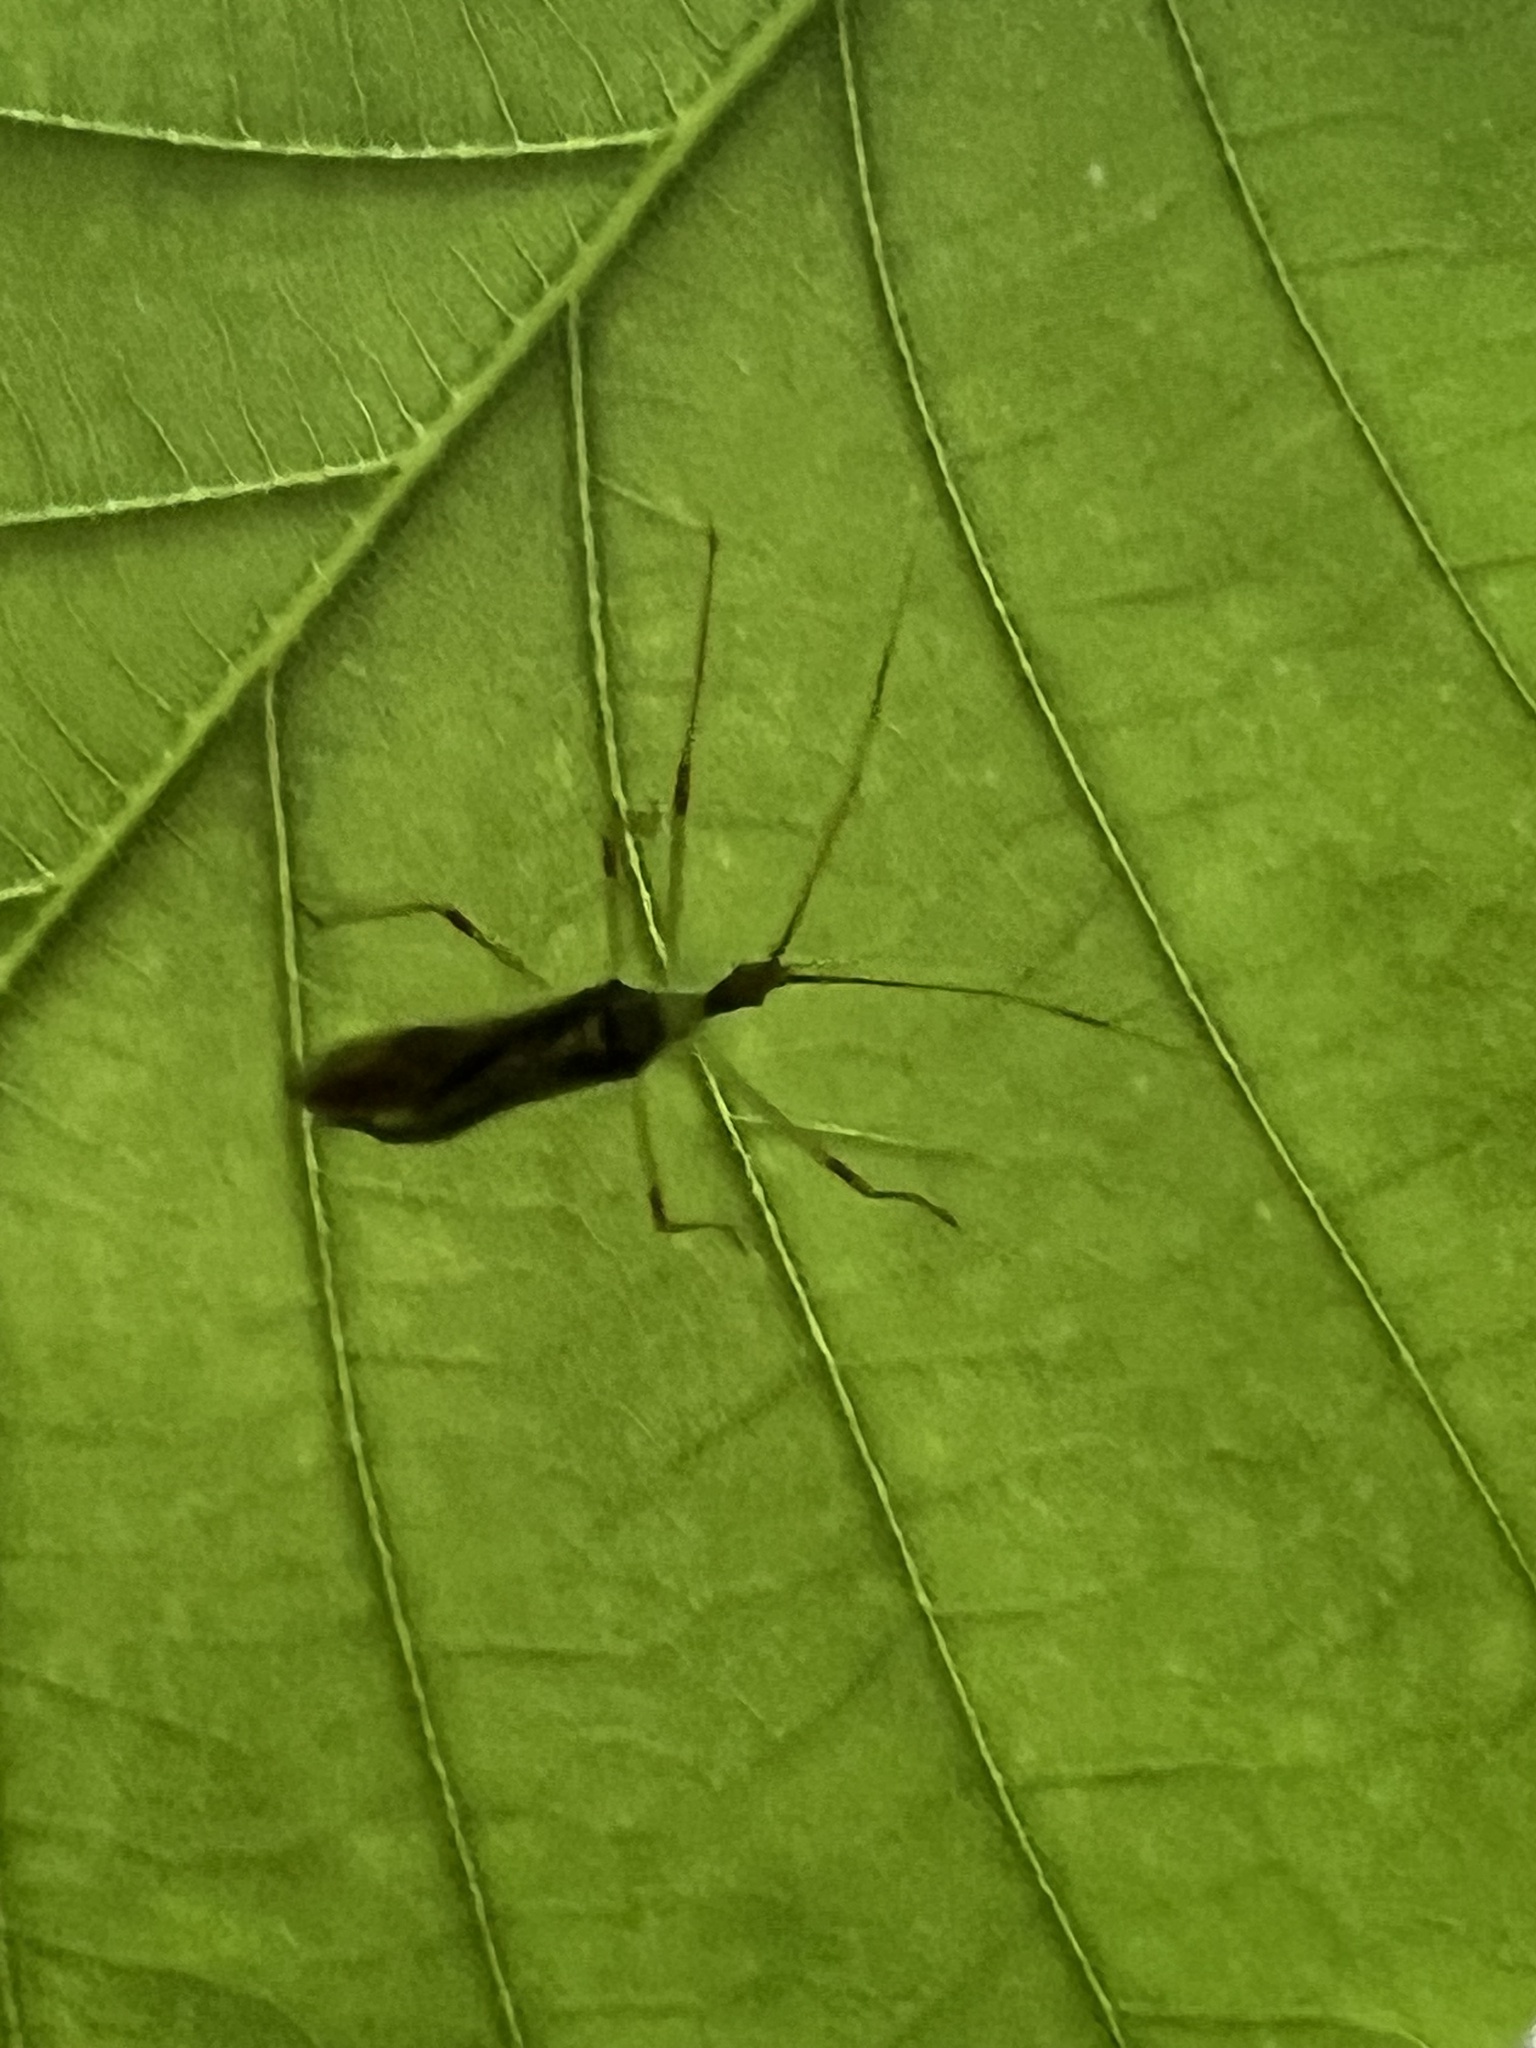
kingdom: Animalia
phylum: Arthropoda
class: Insecta
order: Hemiptera
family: Reduviidae
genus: Zelus
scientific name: Zelus luridus
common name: Pale green assassin bug
